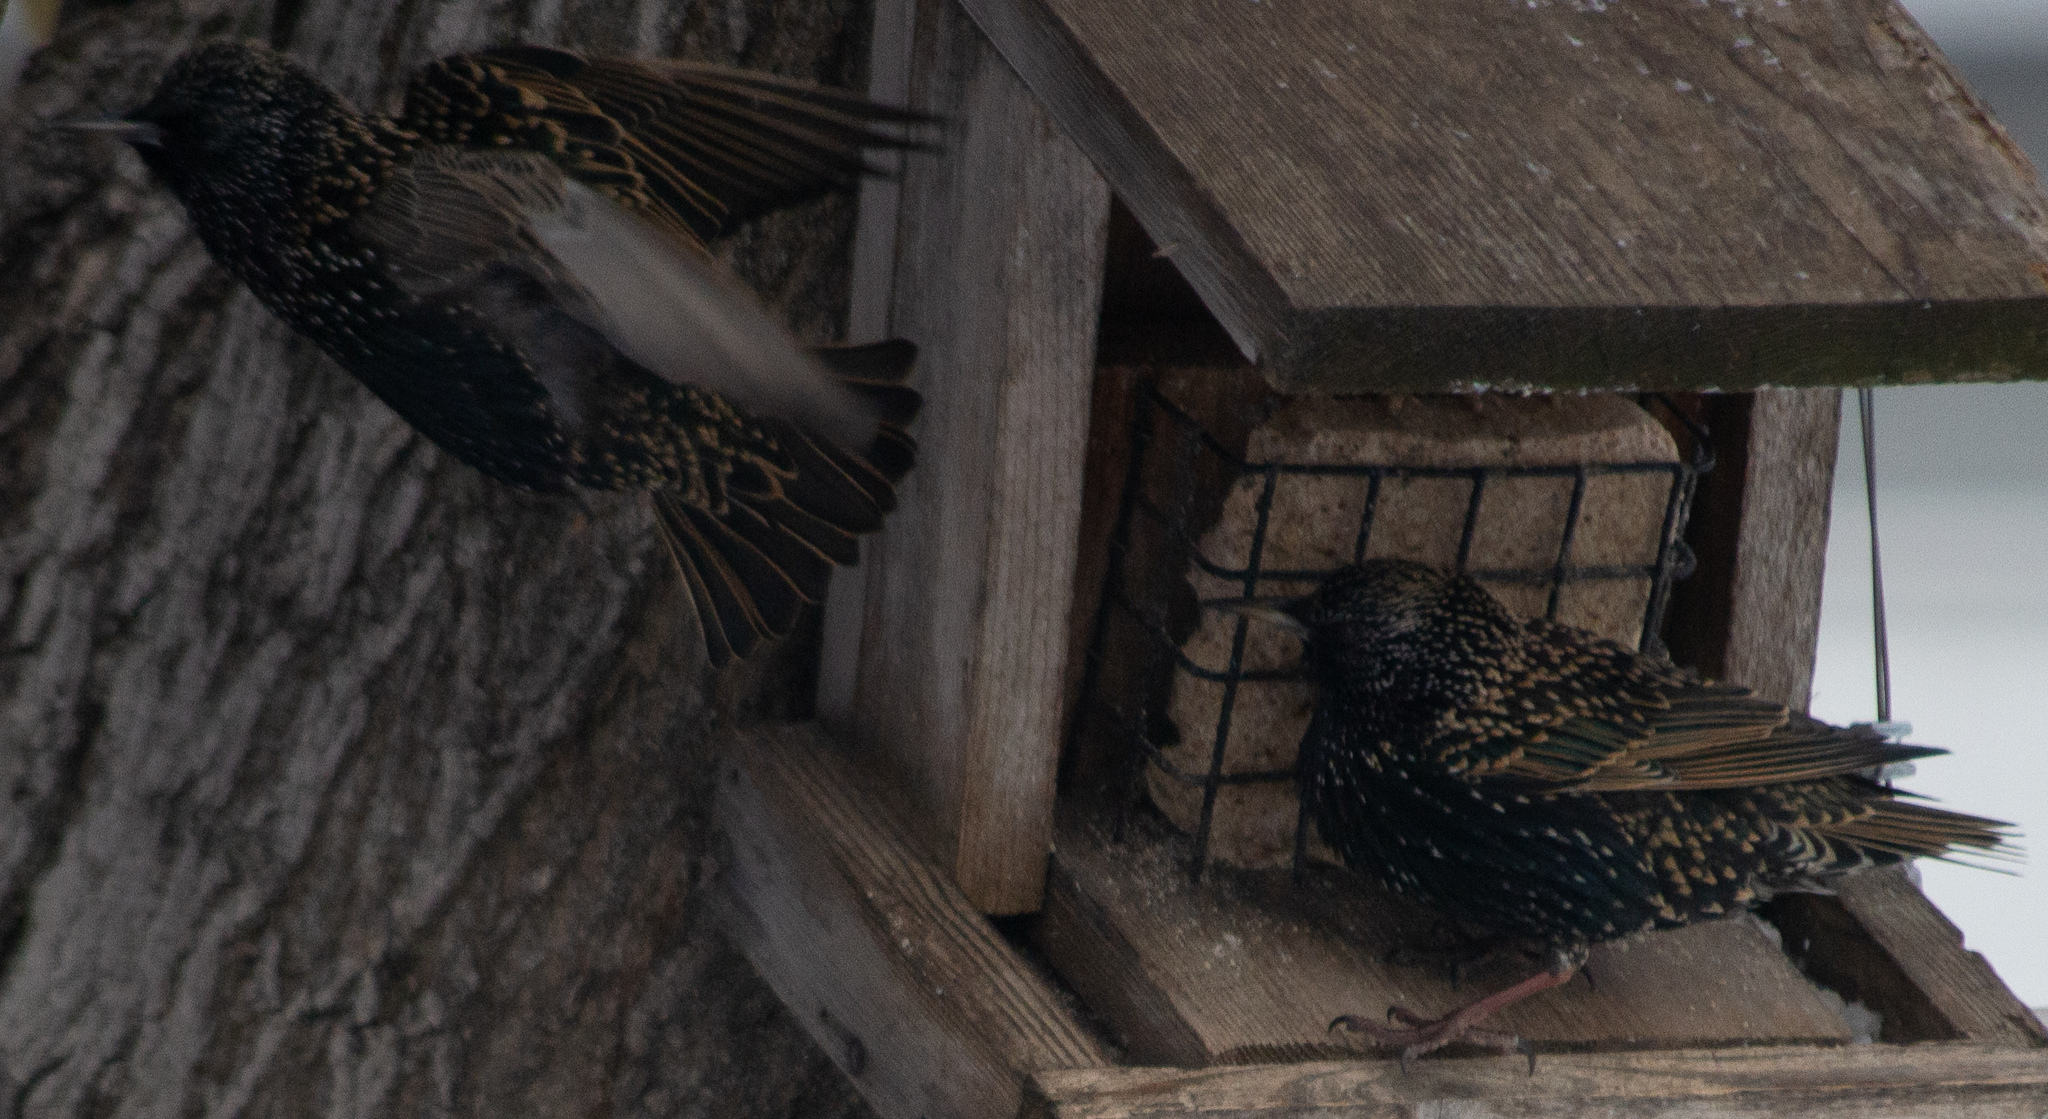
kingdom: Animalia
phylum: Chordata
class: Aves
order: Passeriformes
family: Sturnidae
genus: Sturnus
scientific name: Sturnus vulgaris
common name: Common starling
